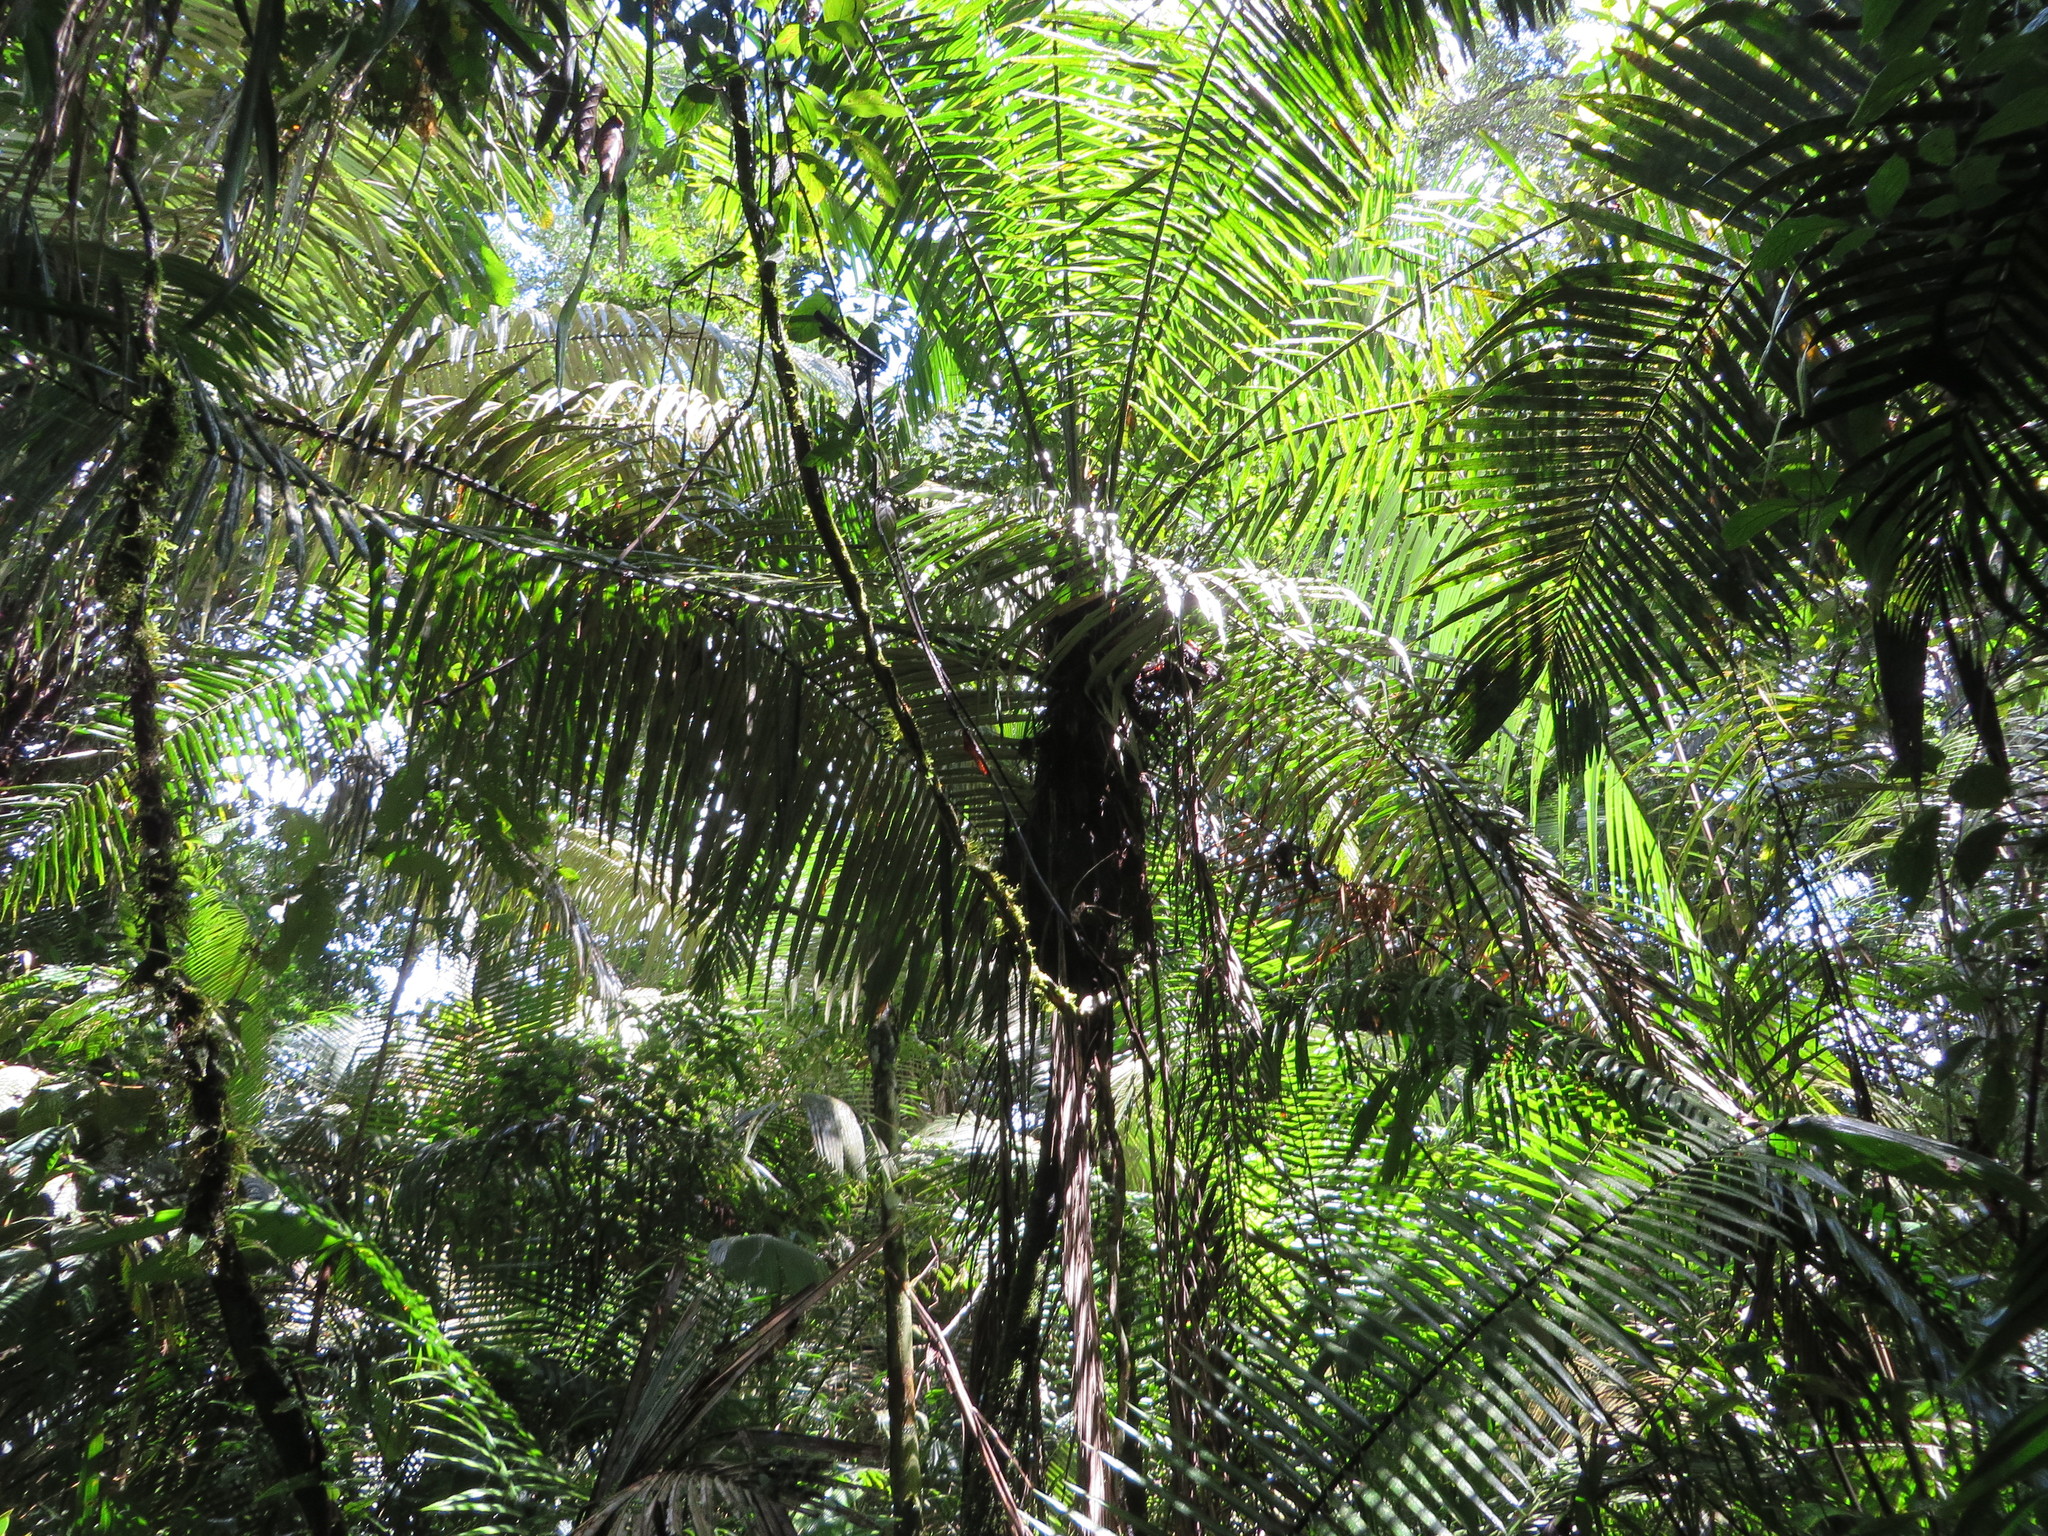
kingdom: Plantae
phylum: Tracheophyta
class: Liliopsida
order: Arecales
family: Arecaceae
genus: Phytelephas
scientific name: Phytelephas tenuicaulis
